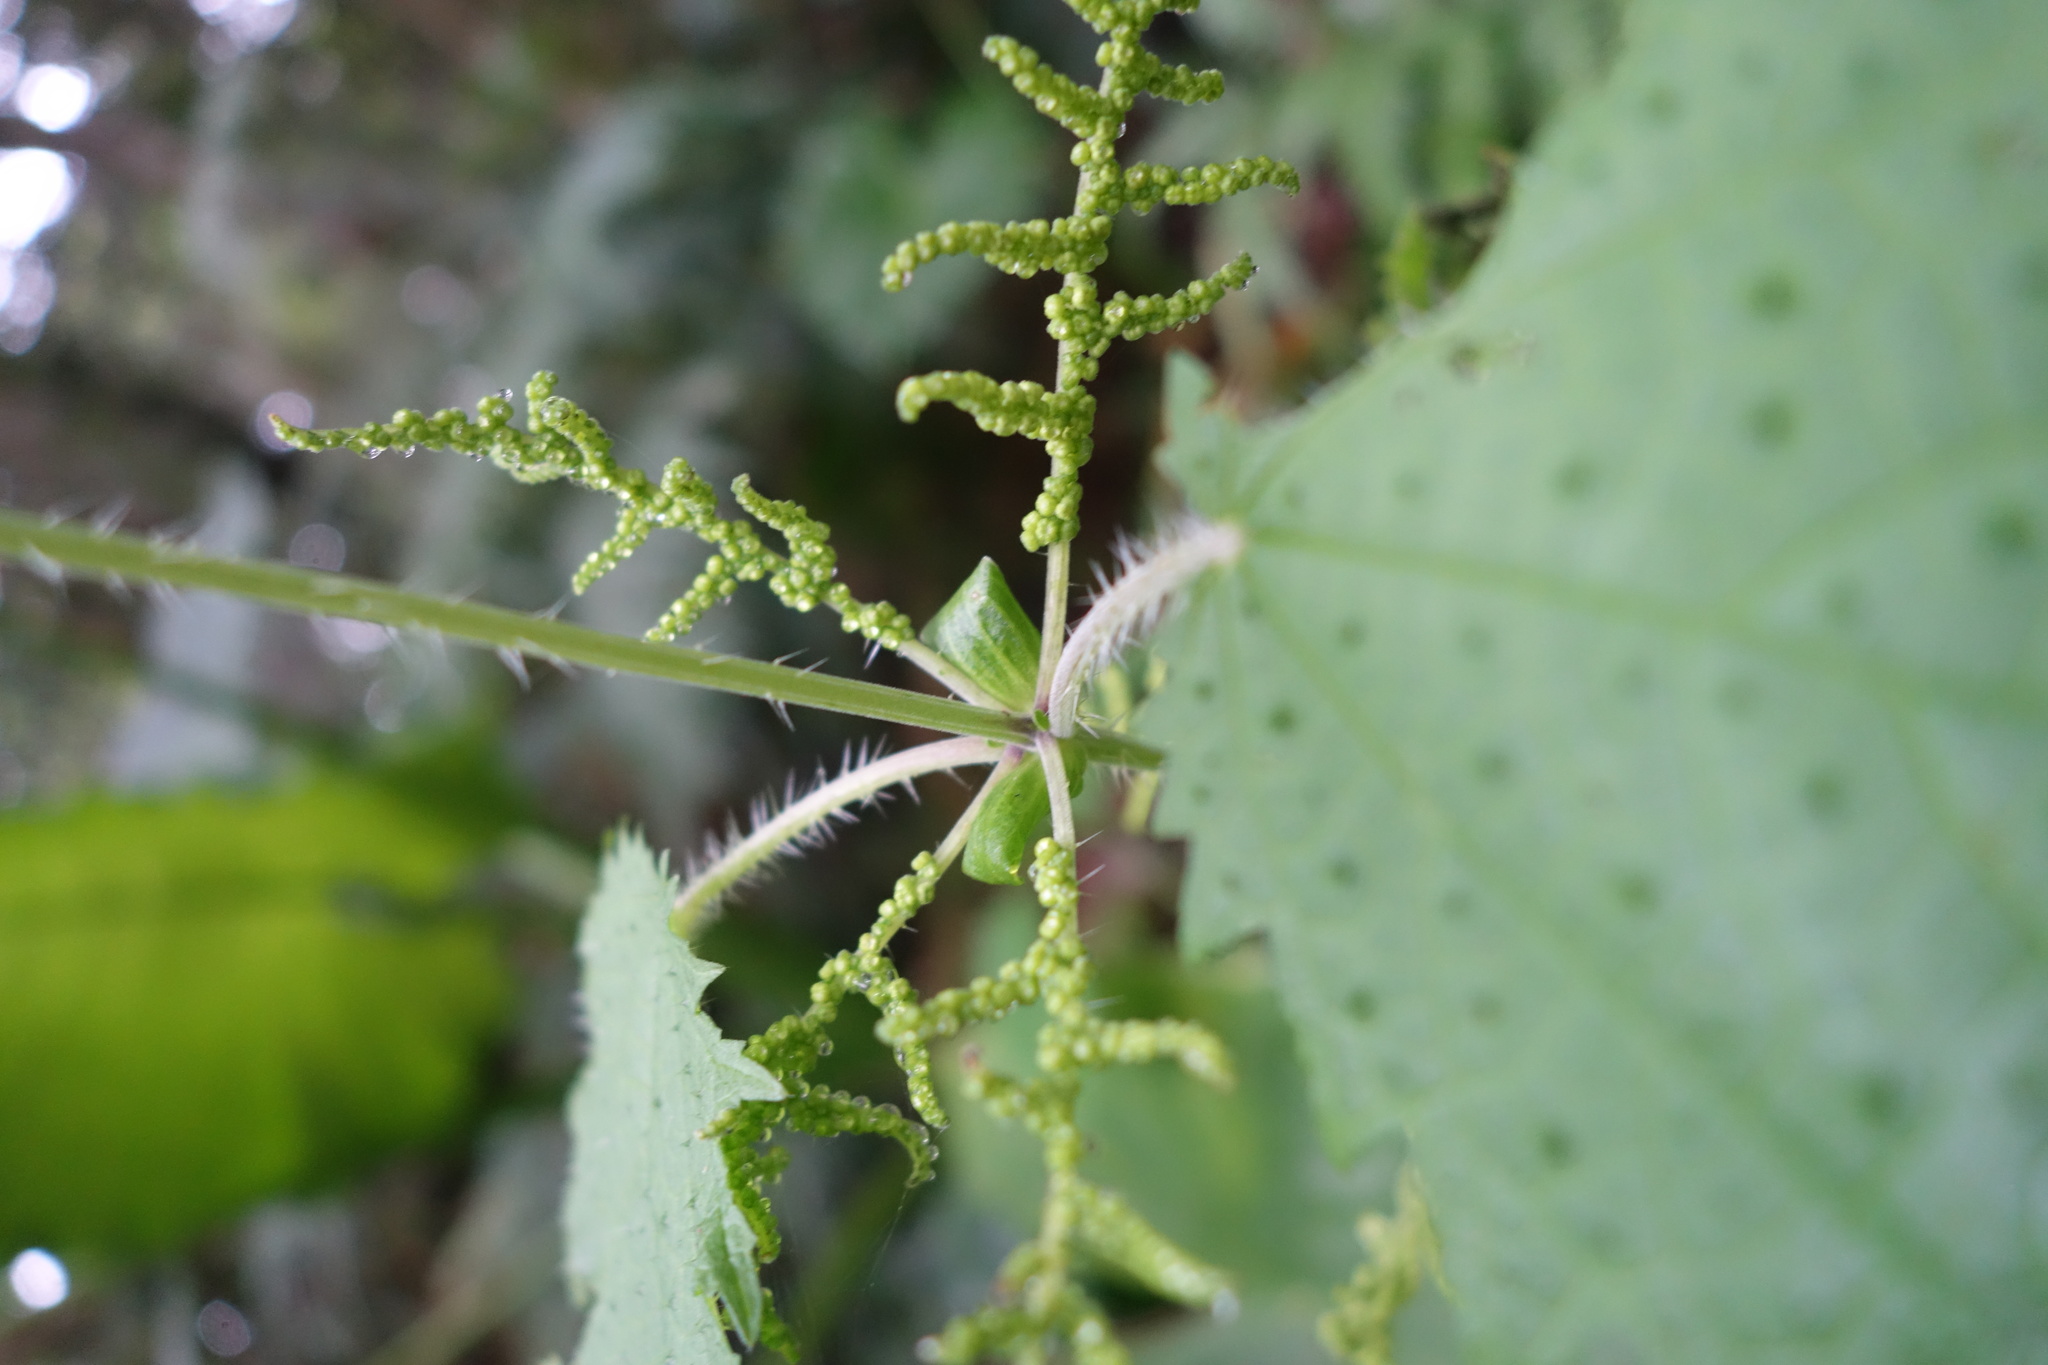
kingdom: Plantae
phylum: Tracheophyta
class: Magnoliopsida
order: Rosales
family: Urticaceae
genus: Urtica
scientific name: Urtica thunbergiana
